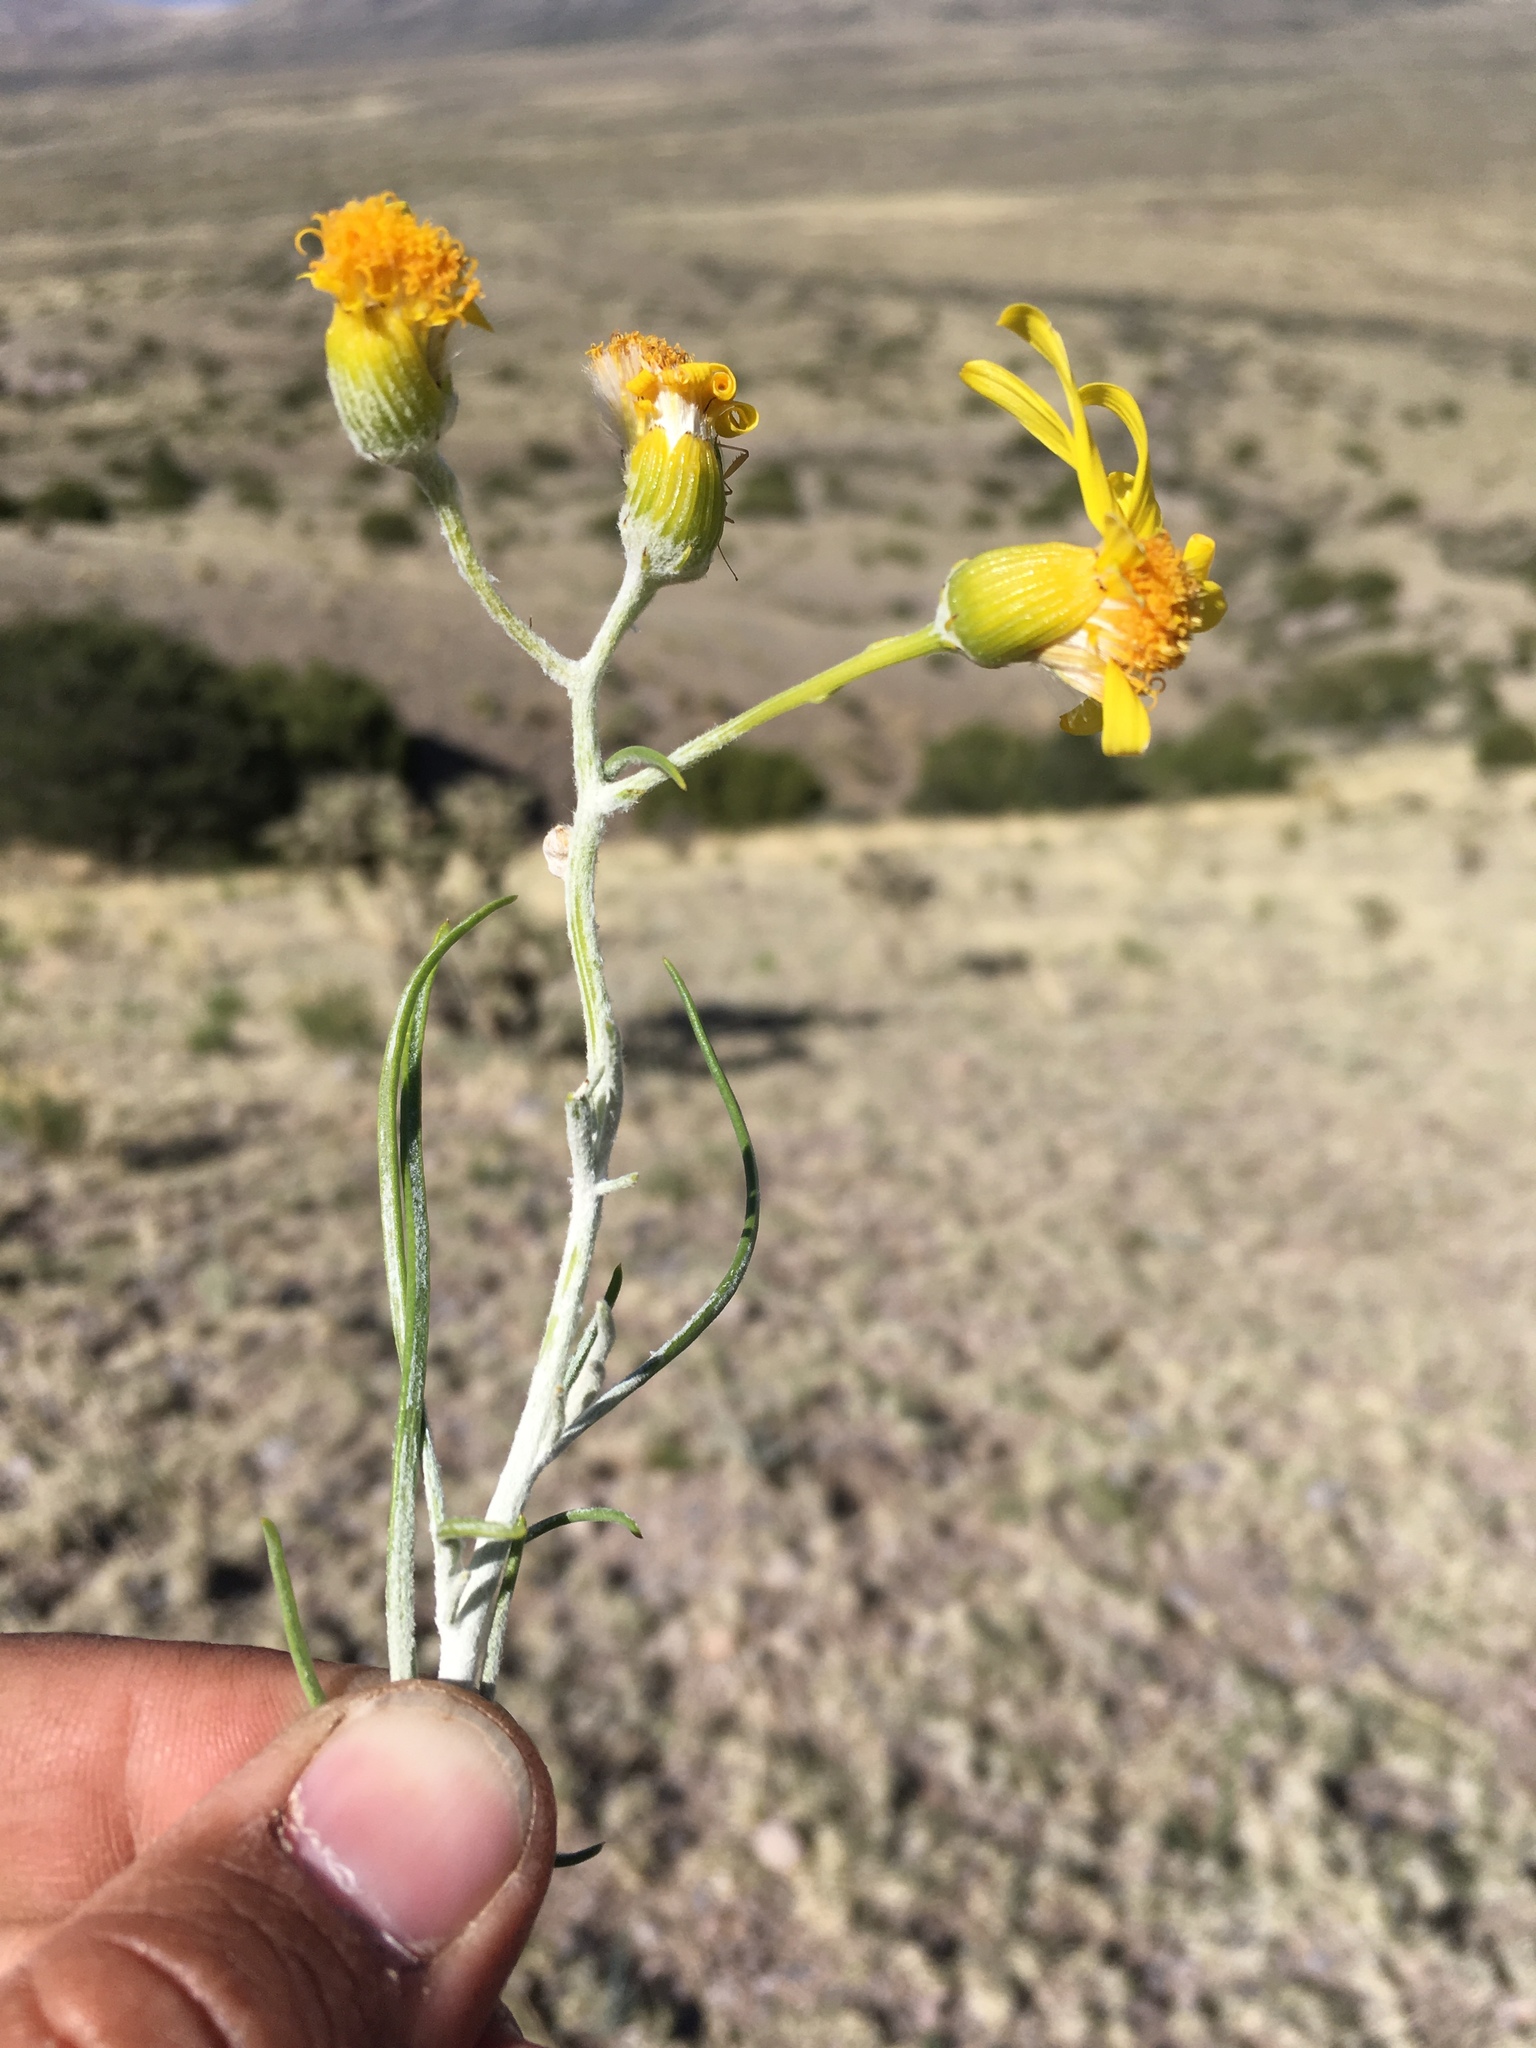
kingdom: Plantae
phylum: Tracheophyta
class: Magnoliopsida
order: Asterales
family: Asteraceae
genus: Senecio
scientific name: Senecio flaccidus
